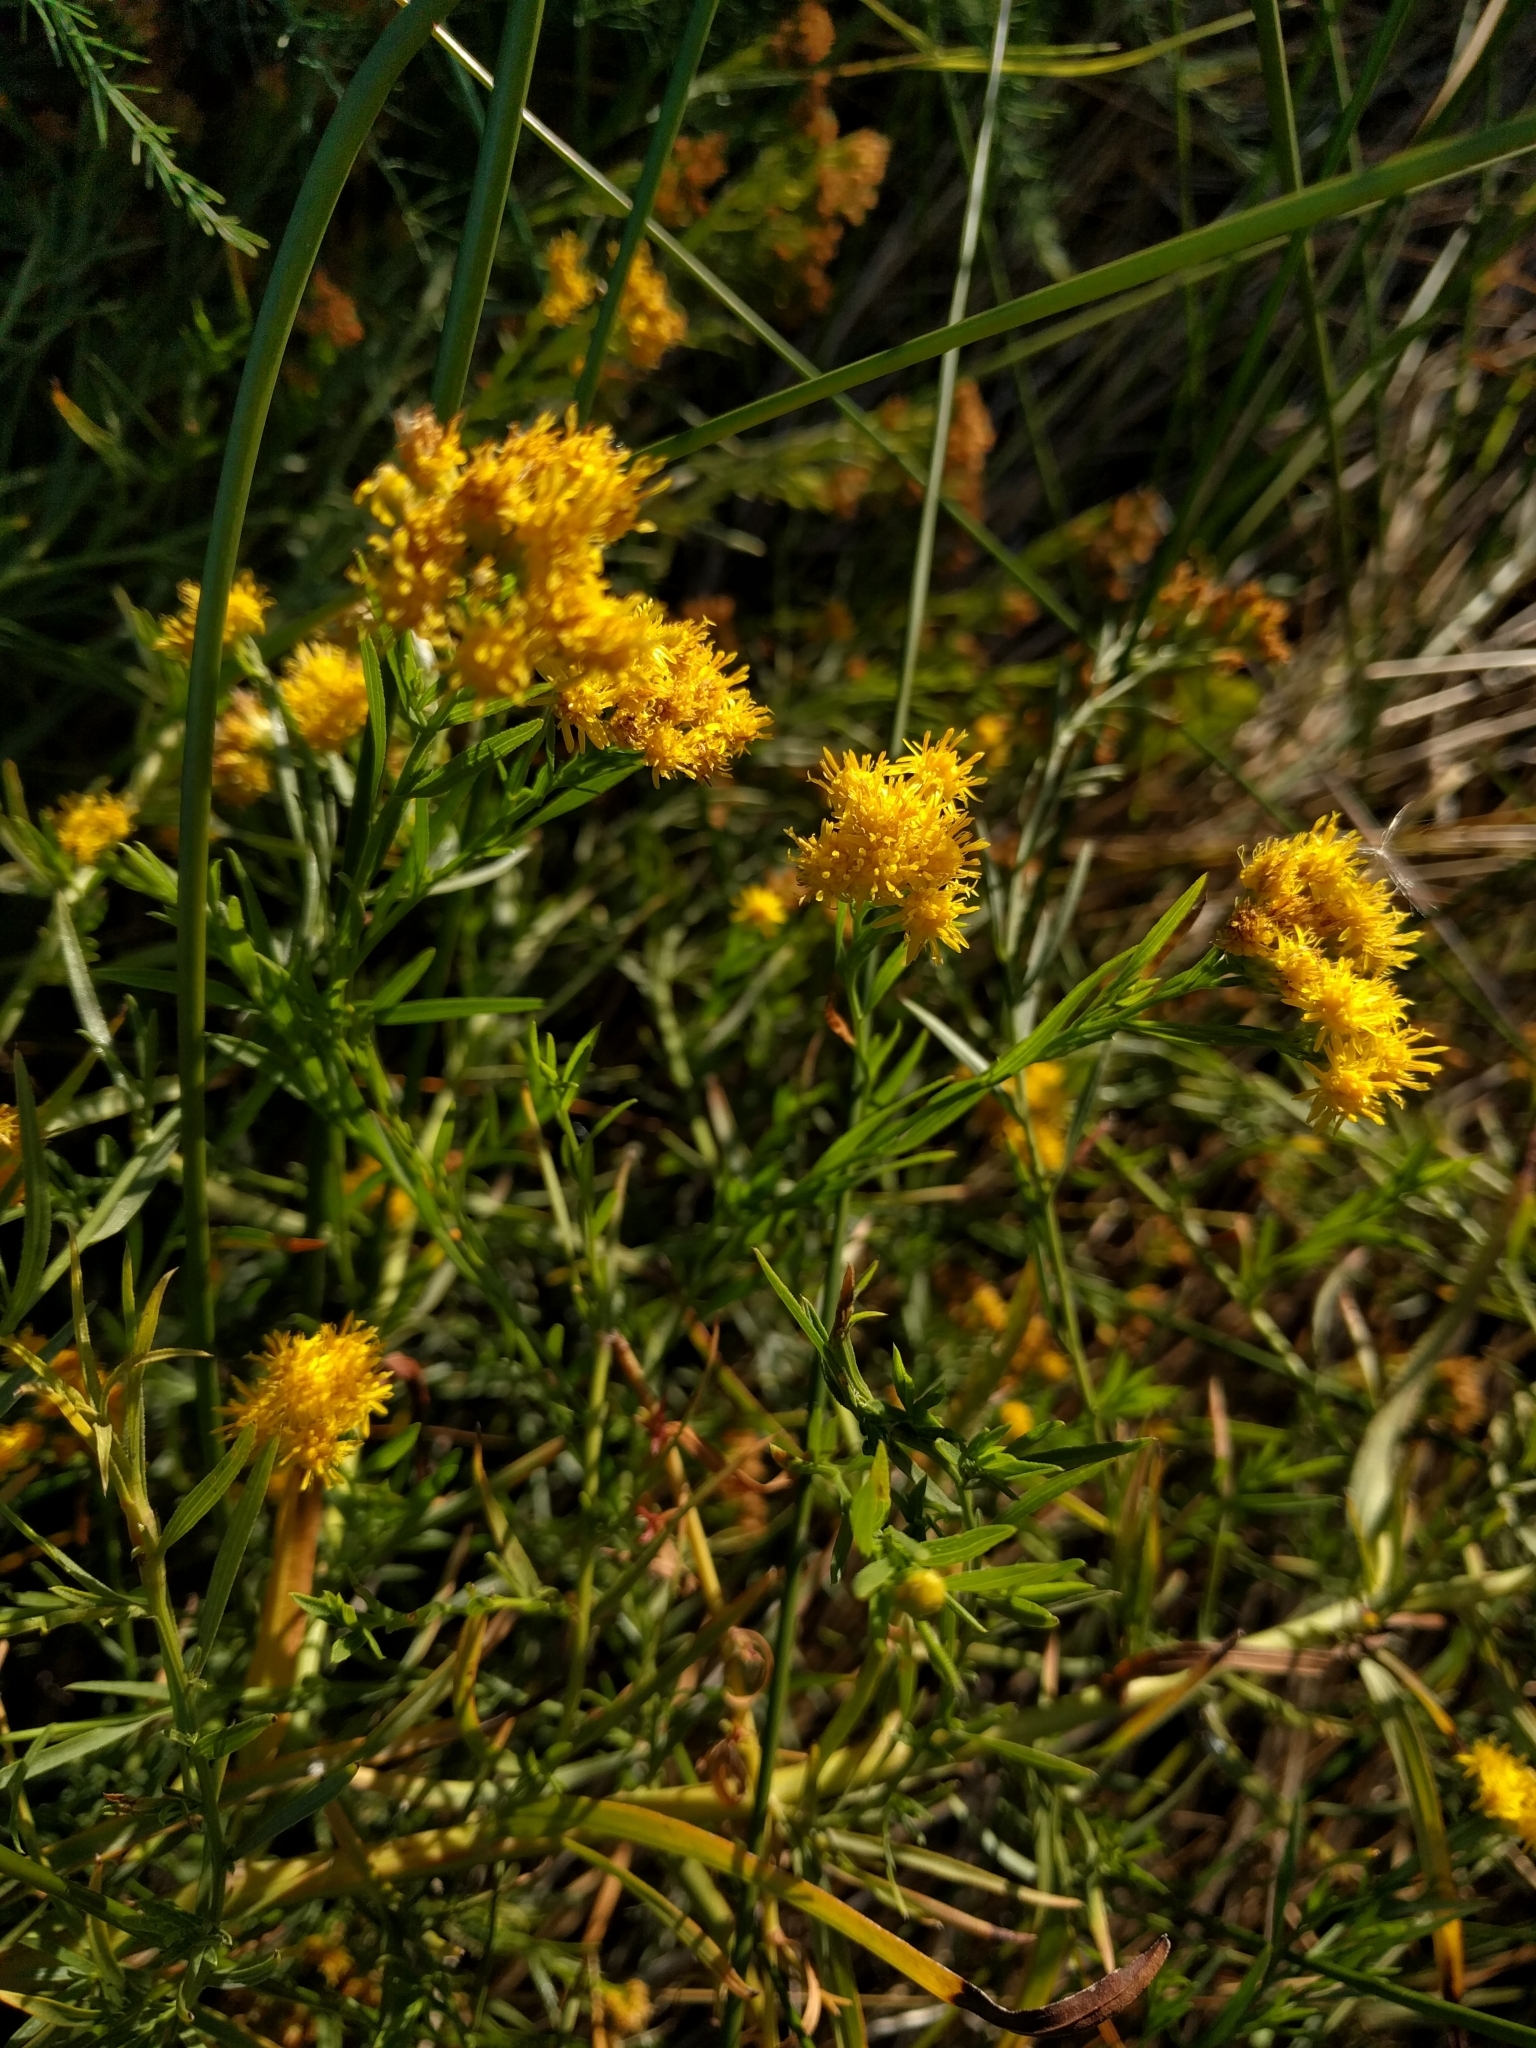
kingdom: Plantae
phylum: Tracheophyta
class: Magnoliopsida
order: Asterales
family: Asteraceae
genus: Euthamia
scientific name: Euthamia occidentalis
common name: Western goldentop
